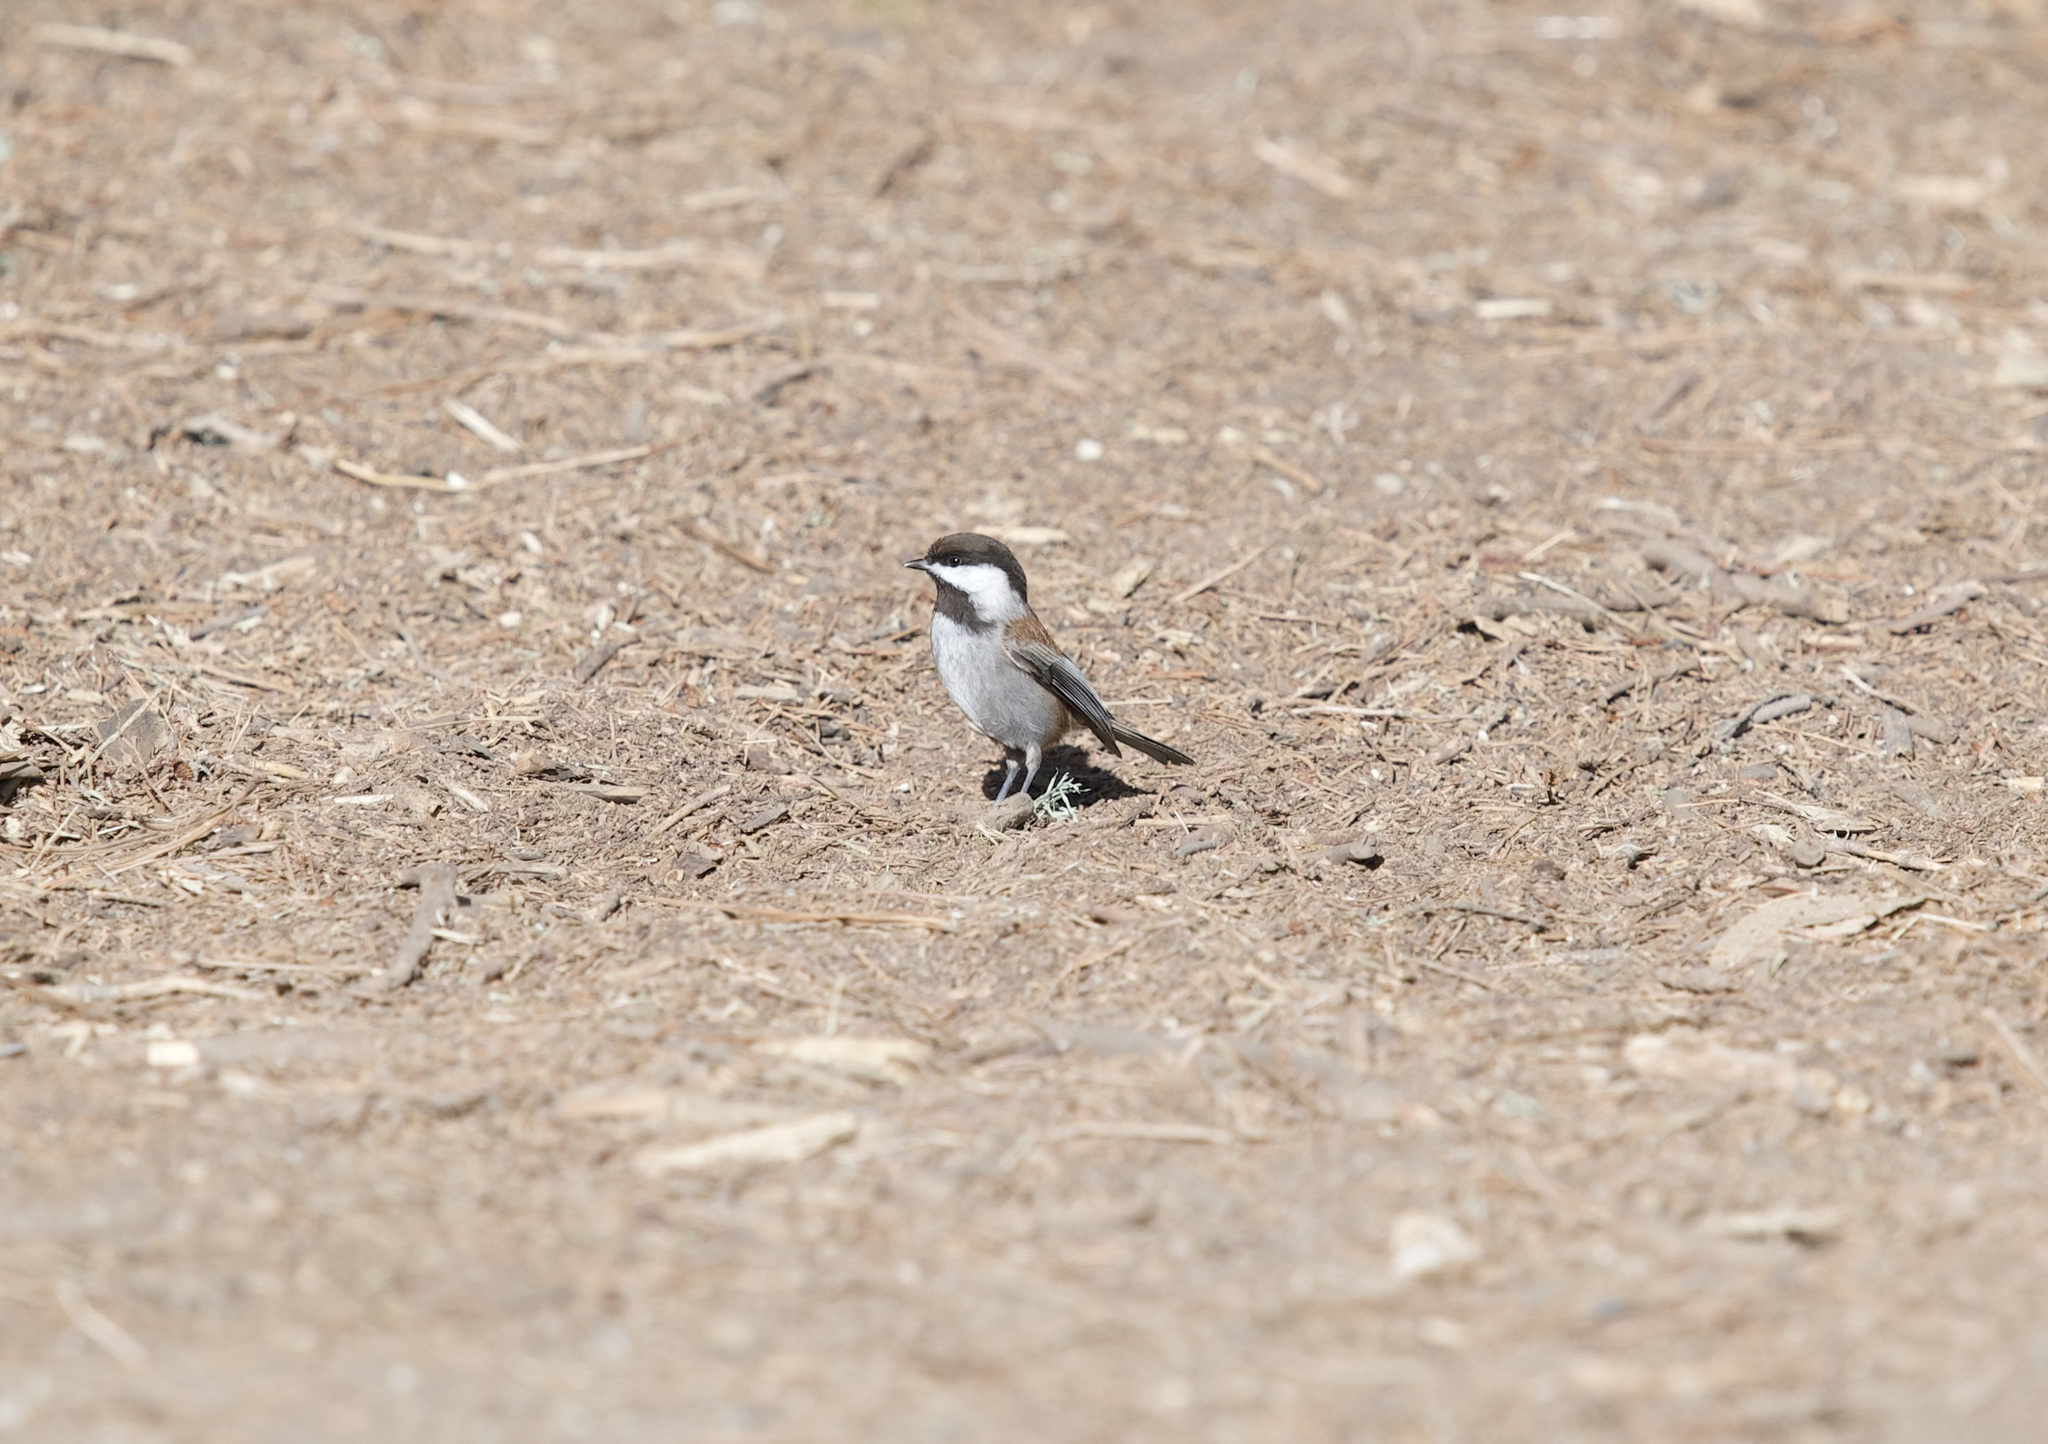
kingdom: Animalia
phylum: Chordata
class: Aves
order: Passeriformes
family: Paridae
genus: Poecile
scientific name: Poecile rufescens
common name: Chestnut-backed chickadee
